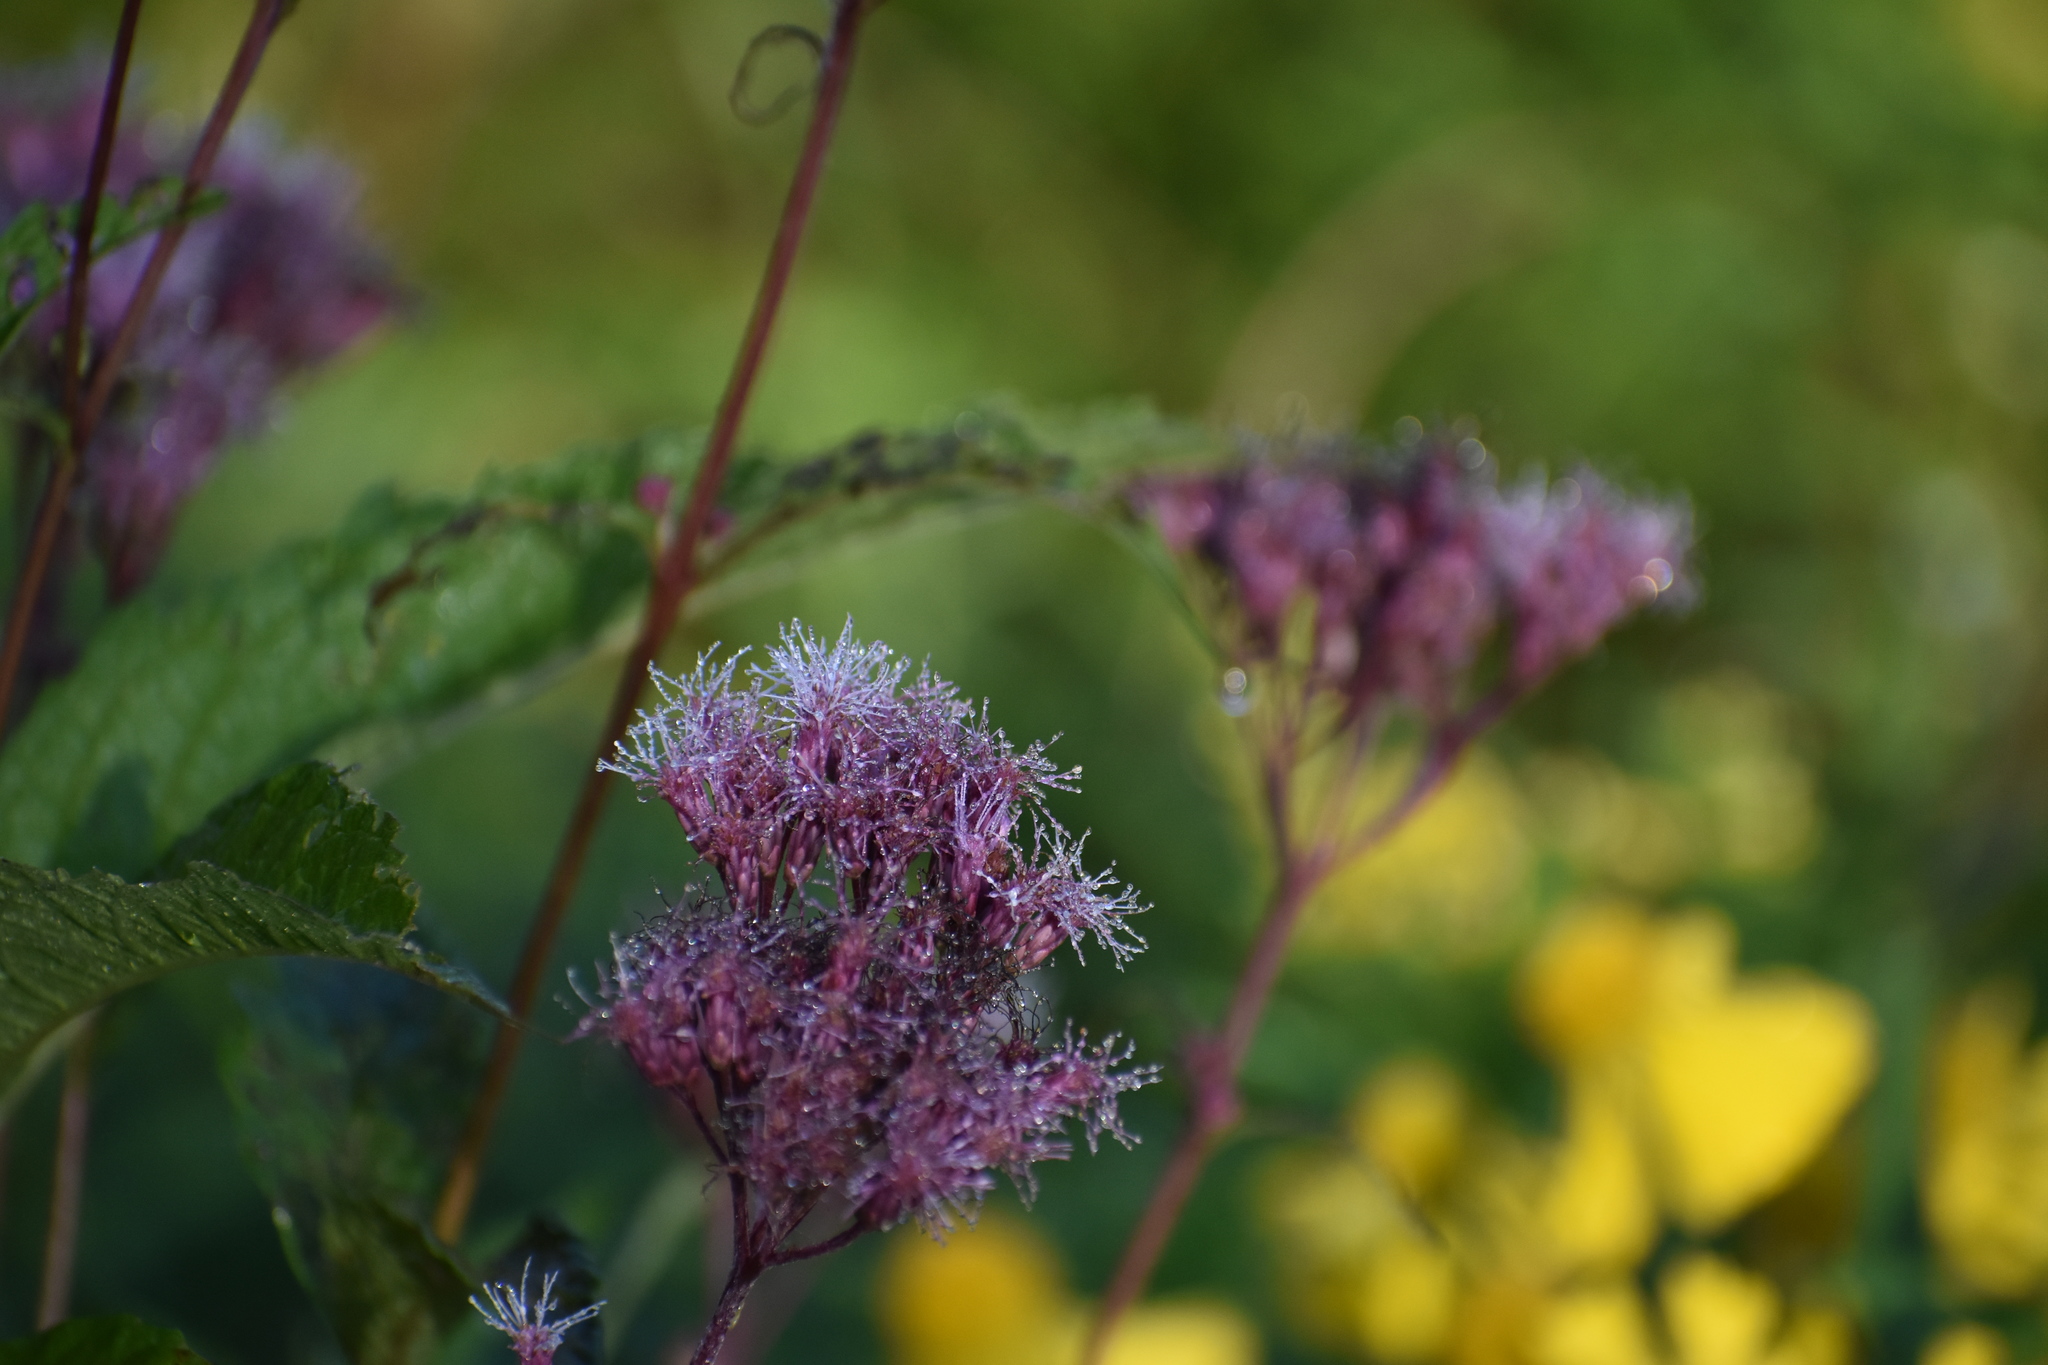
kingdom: Plantae
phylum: Tracheophyta
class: Magnoliopsida
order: Asterales
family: Asteraceae
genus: Eutrochium
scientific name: Eutrochium maculatum
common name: Spotted joe pye weed
